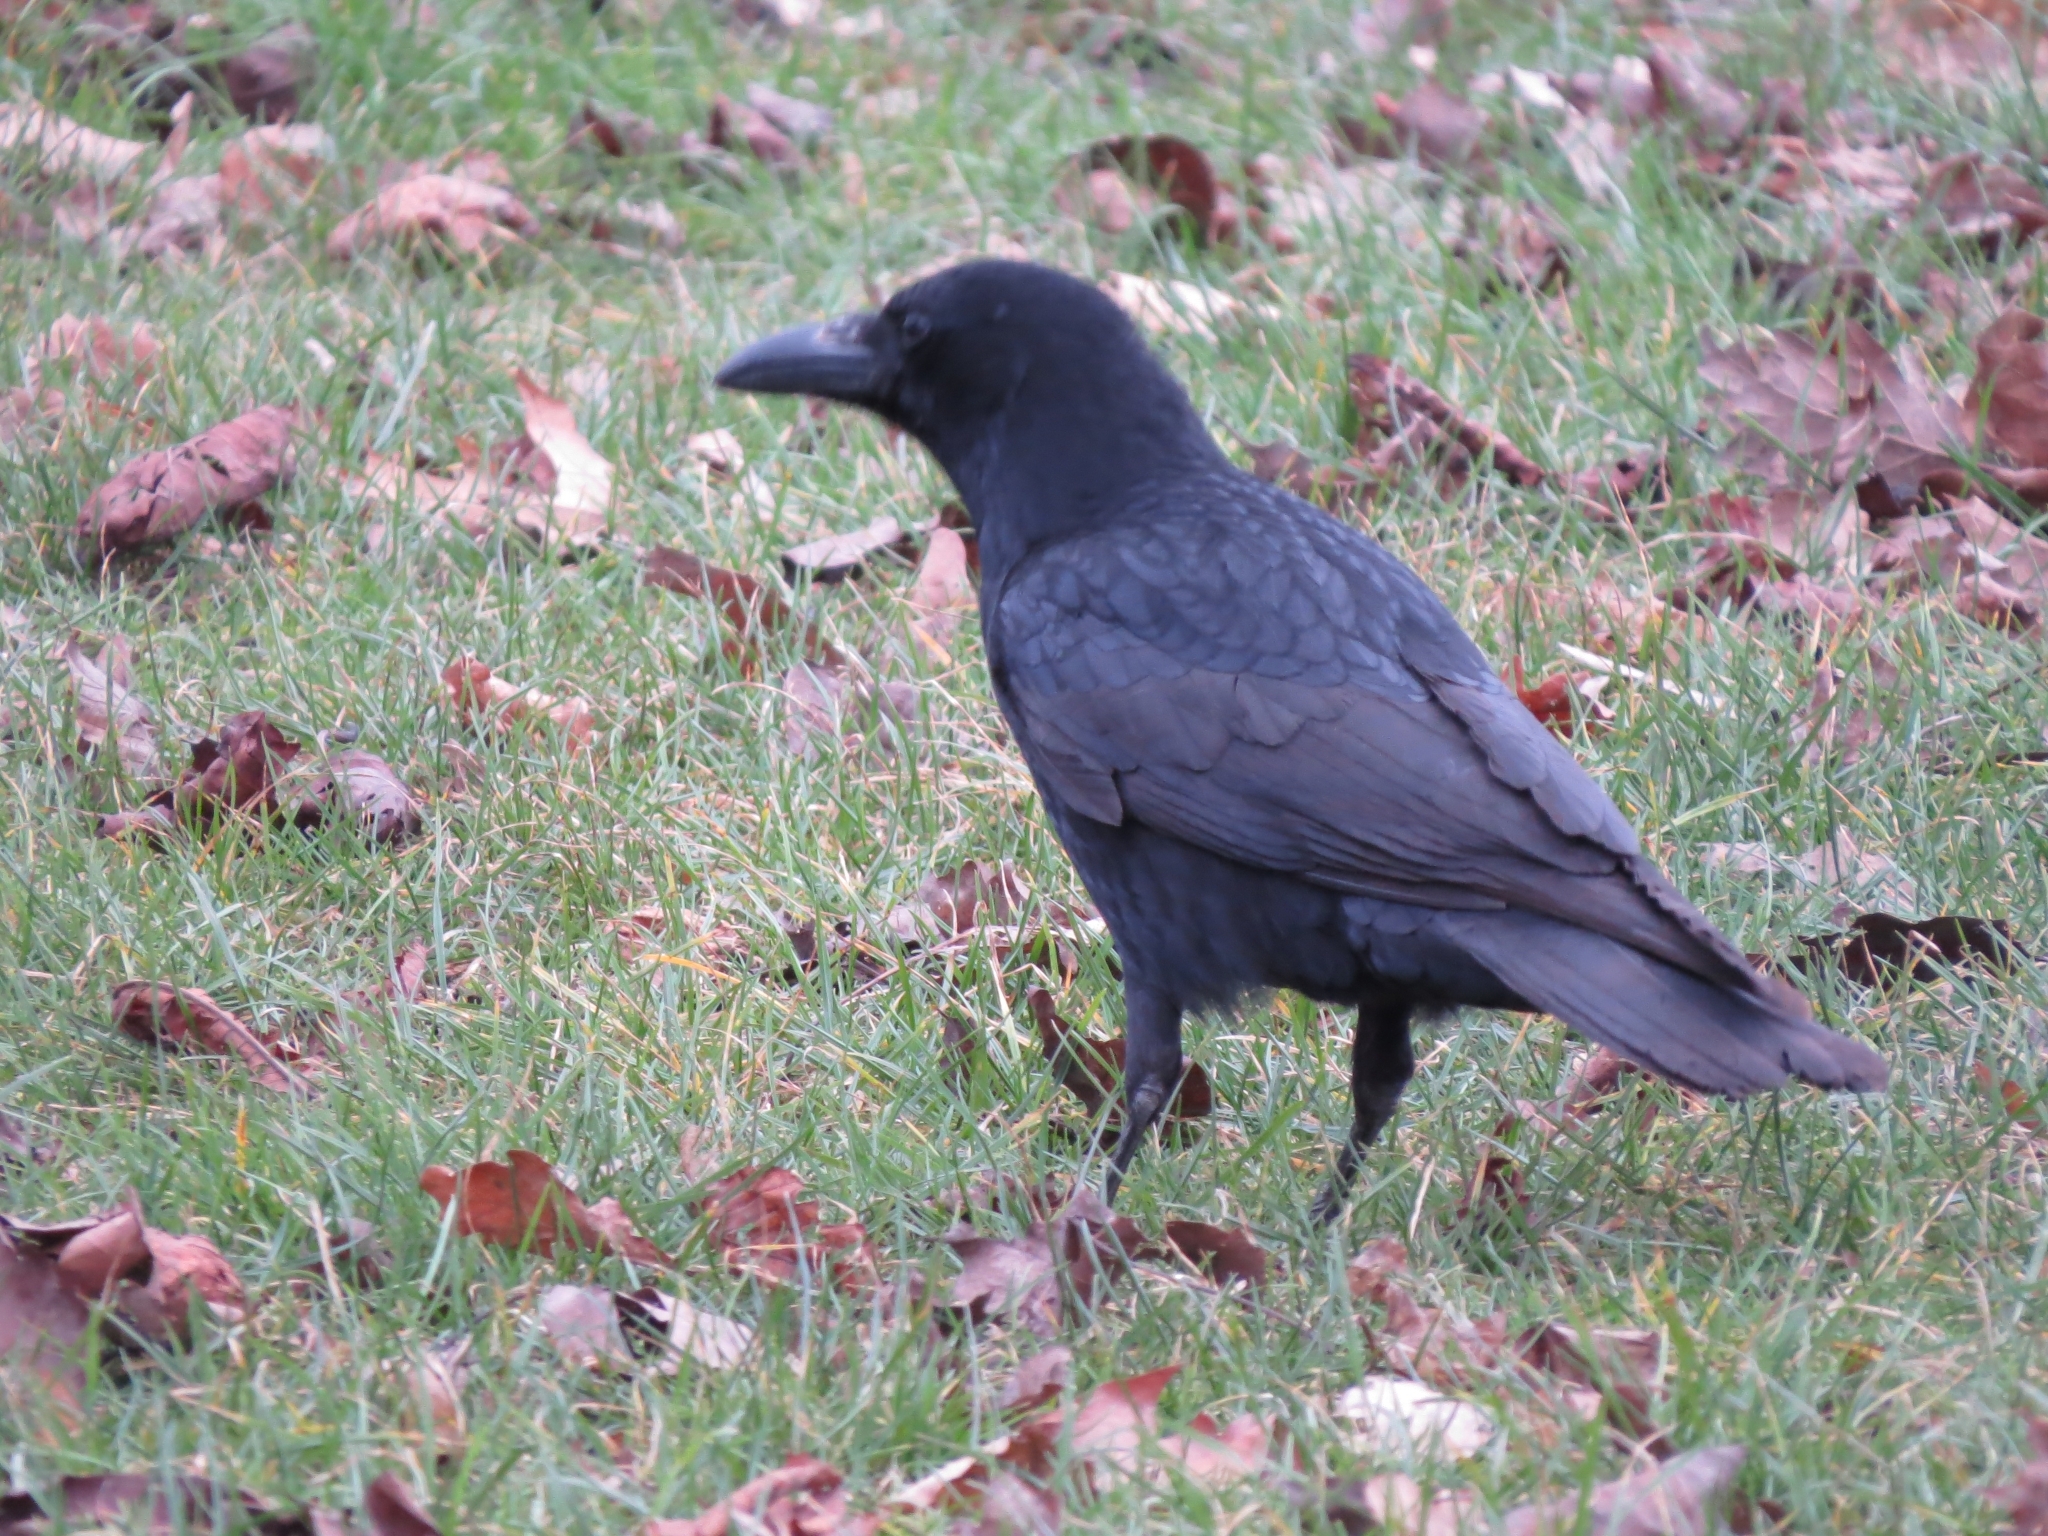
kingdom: Animalia
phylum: Chordata
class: Aves
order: Passeriformes
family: Corvidae
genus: Corvus
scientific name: Corvus corone
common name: Carrion crow
